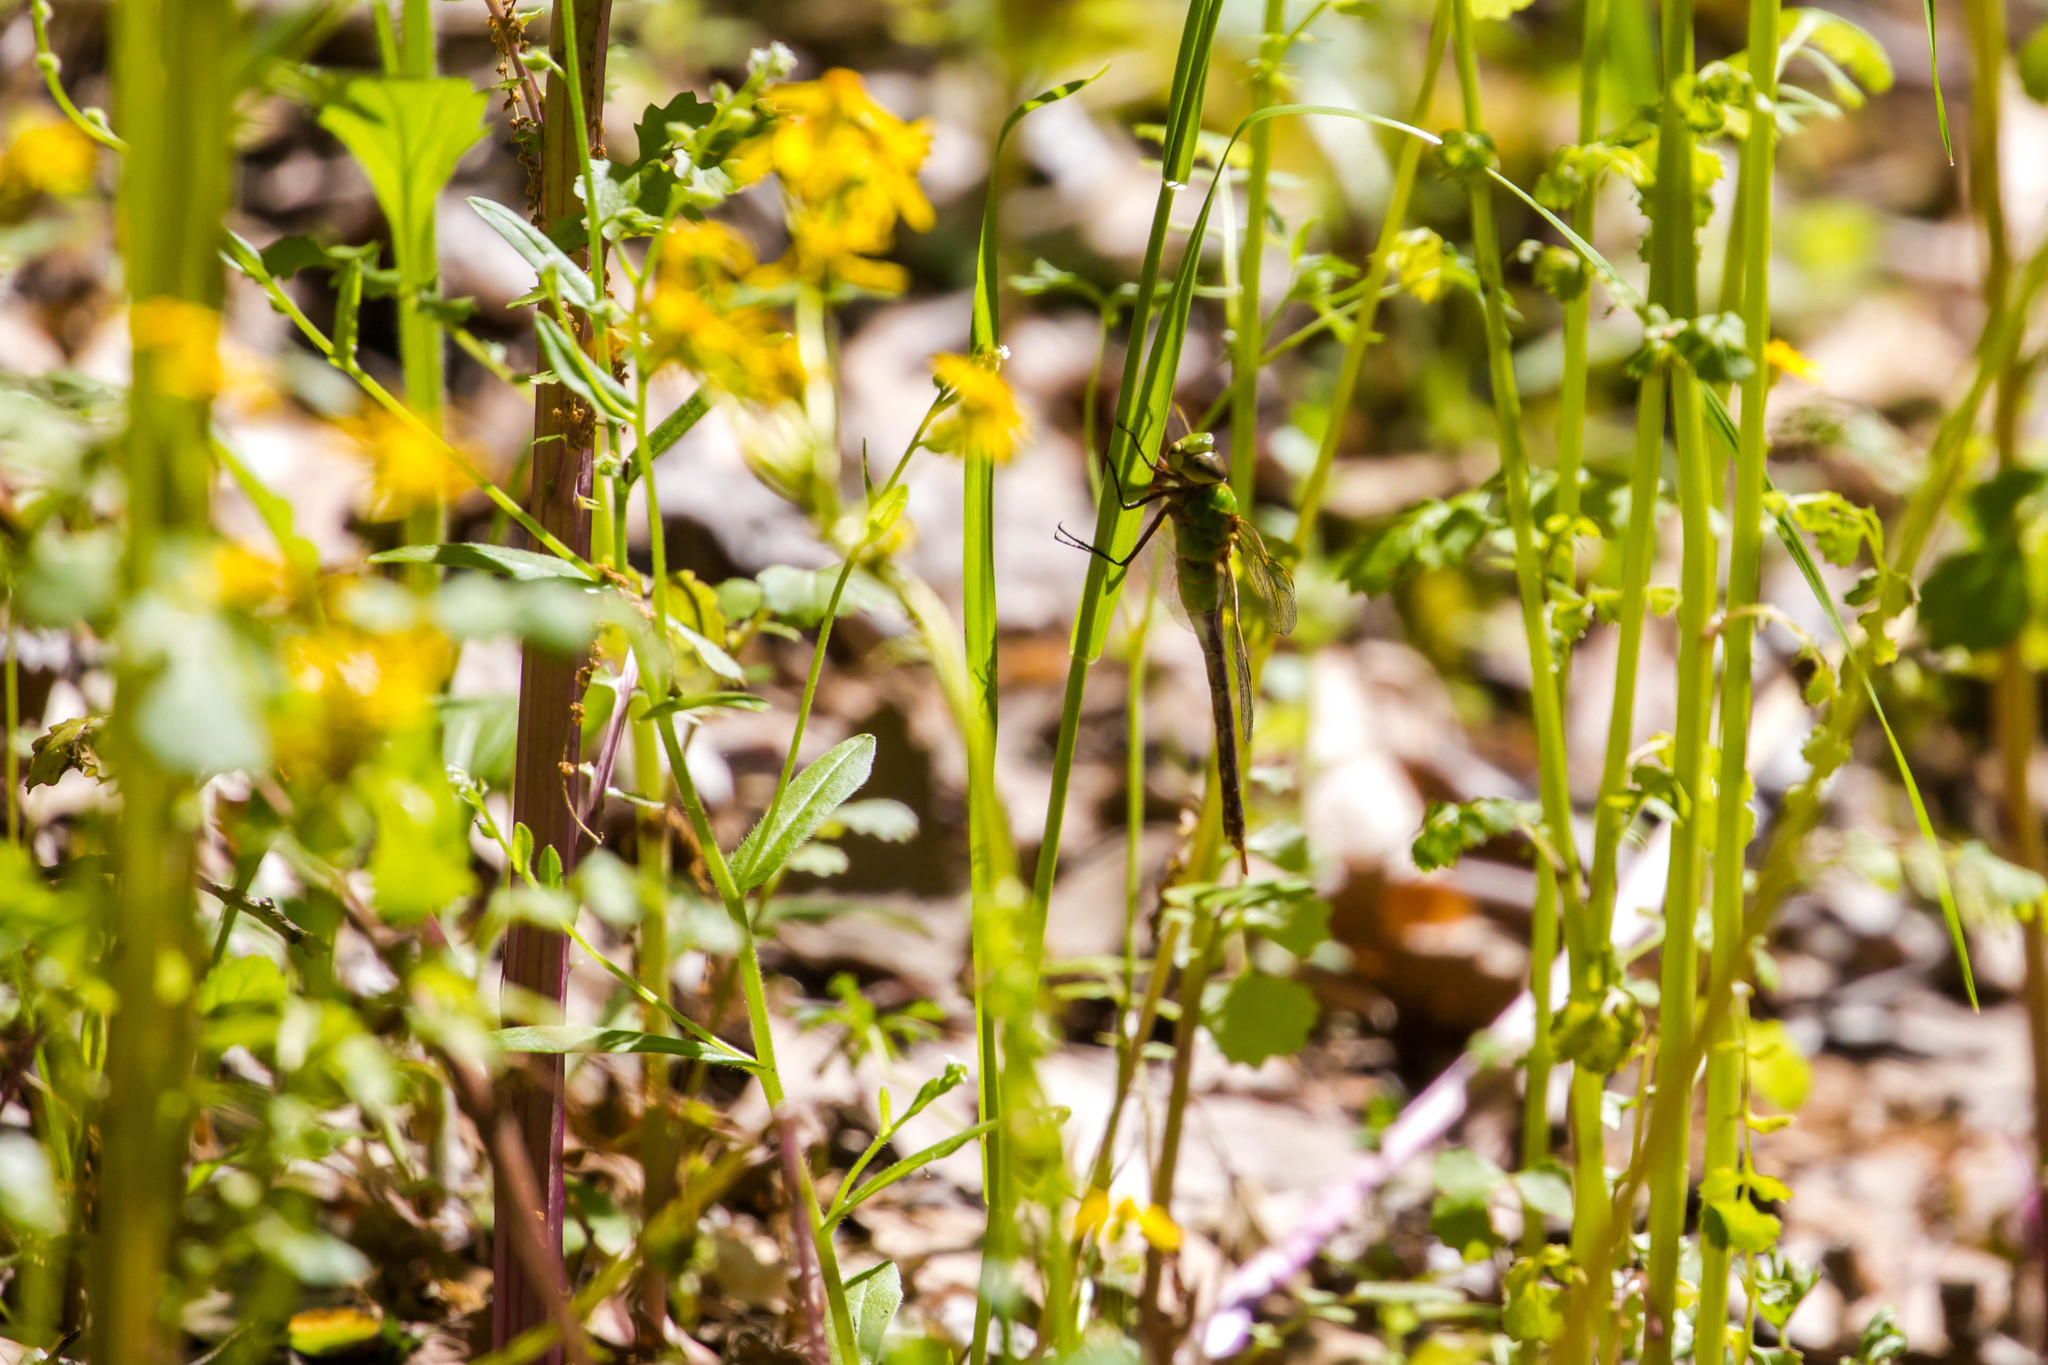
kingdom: Animalia
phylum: Arthropoda
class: Insecta
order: Odonata
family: Aeshnidae
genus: Anax
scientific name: Anax junius
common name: Common green darner
